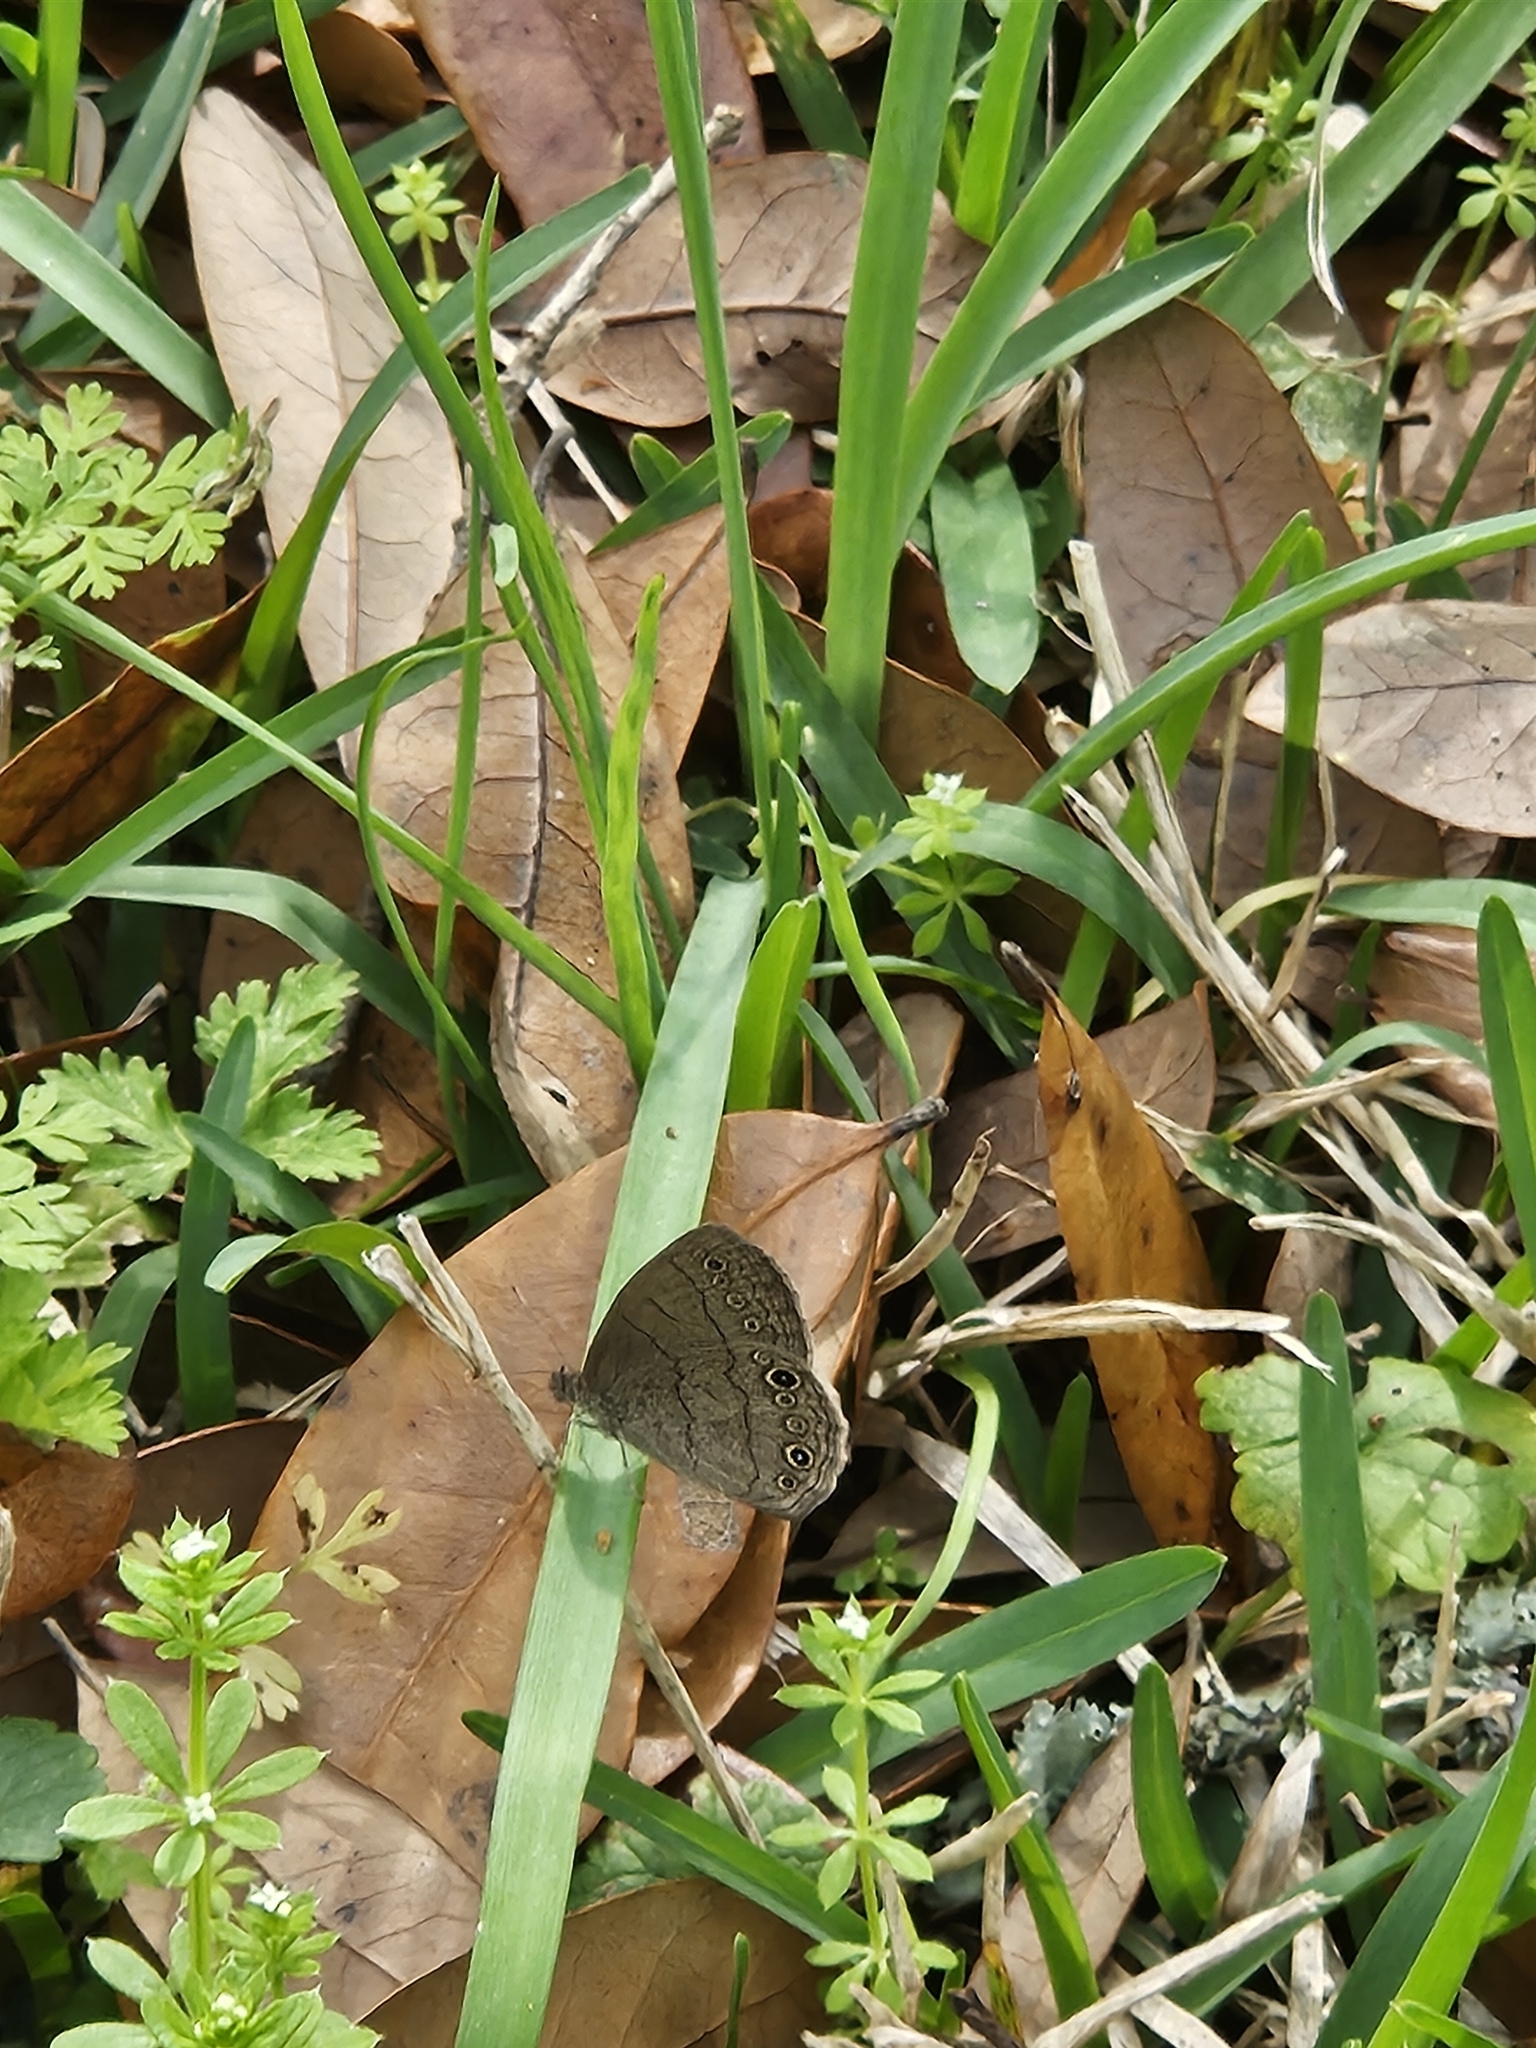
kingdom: Animalia
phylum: Arthropoda
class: Insecta
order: Lepidoptera
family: Nymphalidae
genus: Hermeuptychia
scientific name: Hermeuptychia hermes
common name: Hermes satyr
